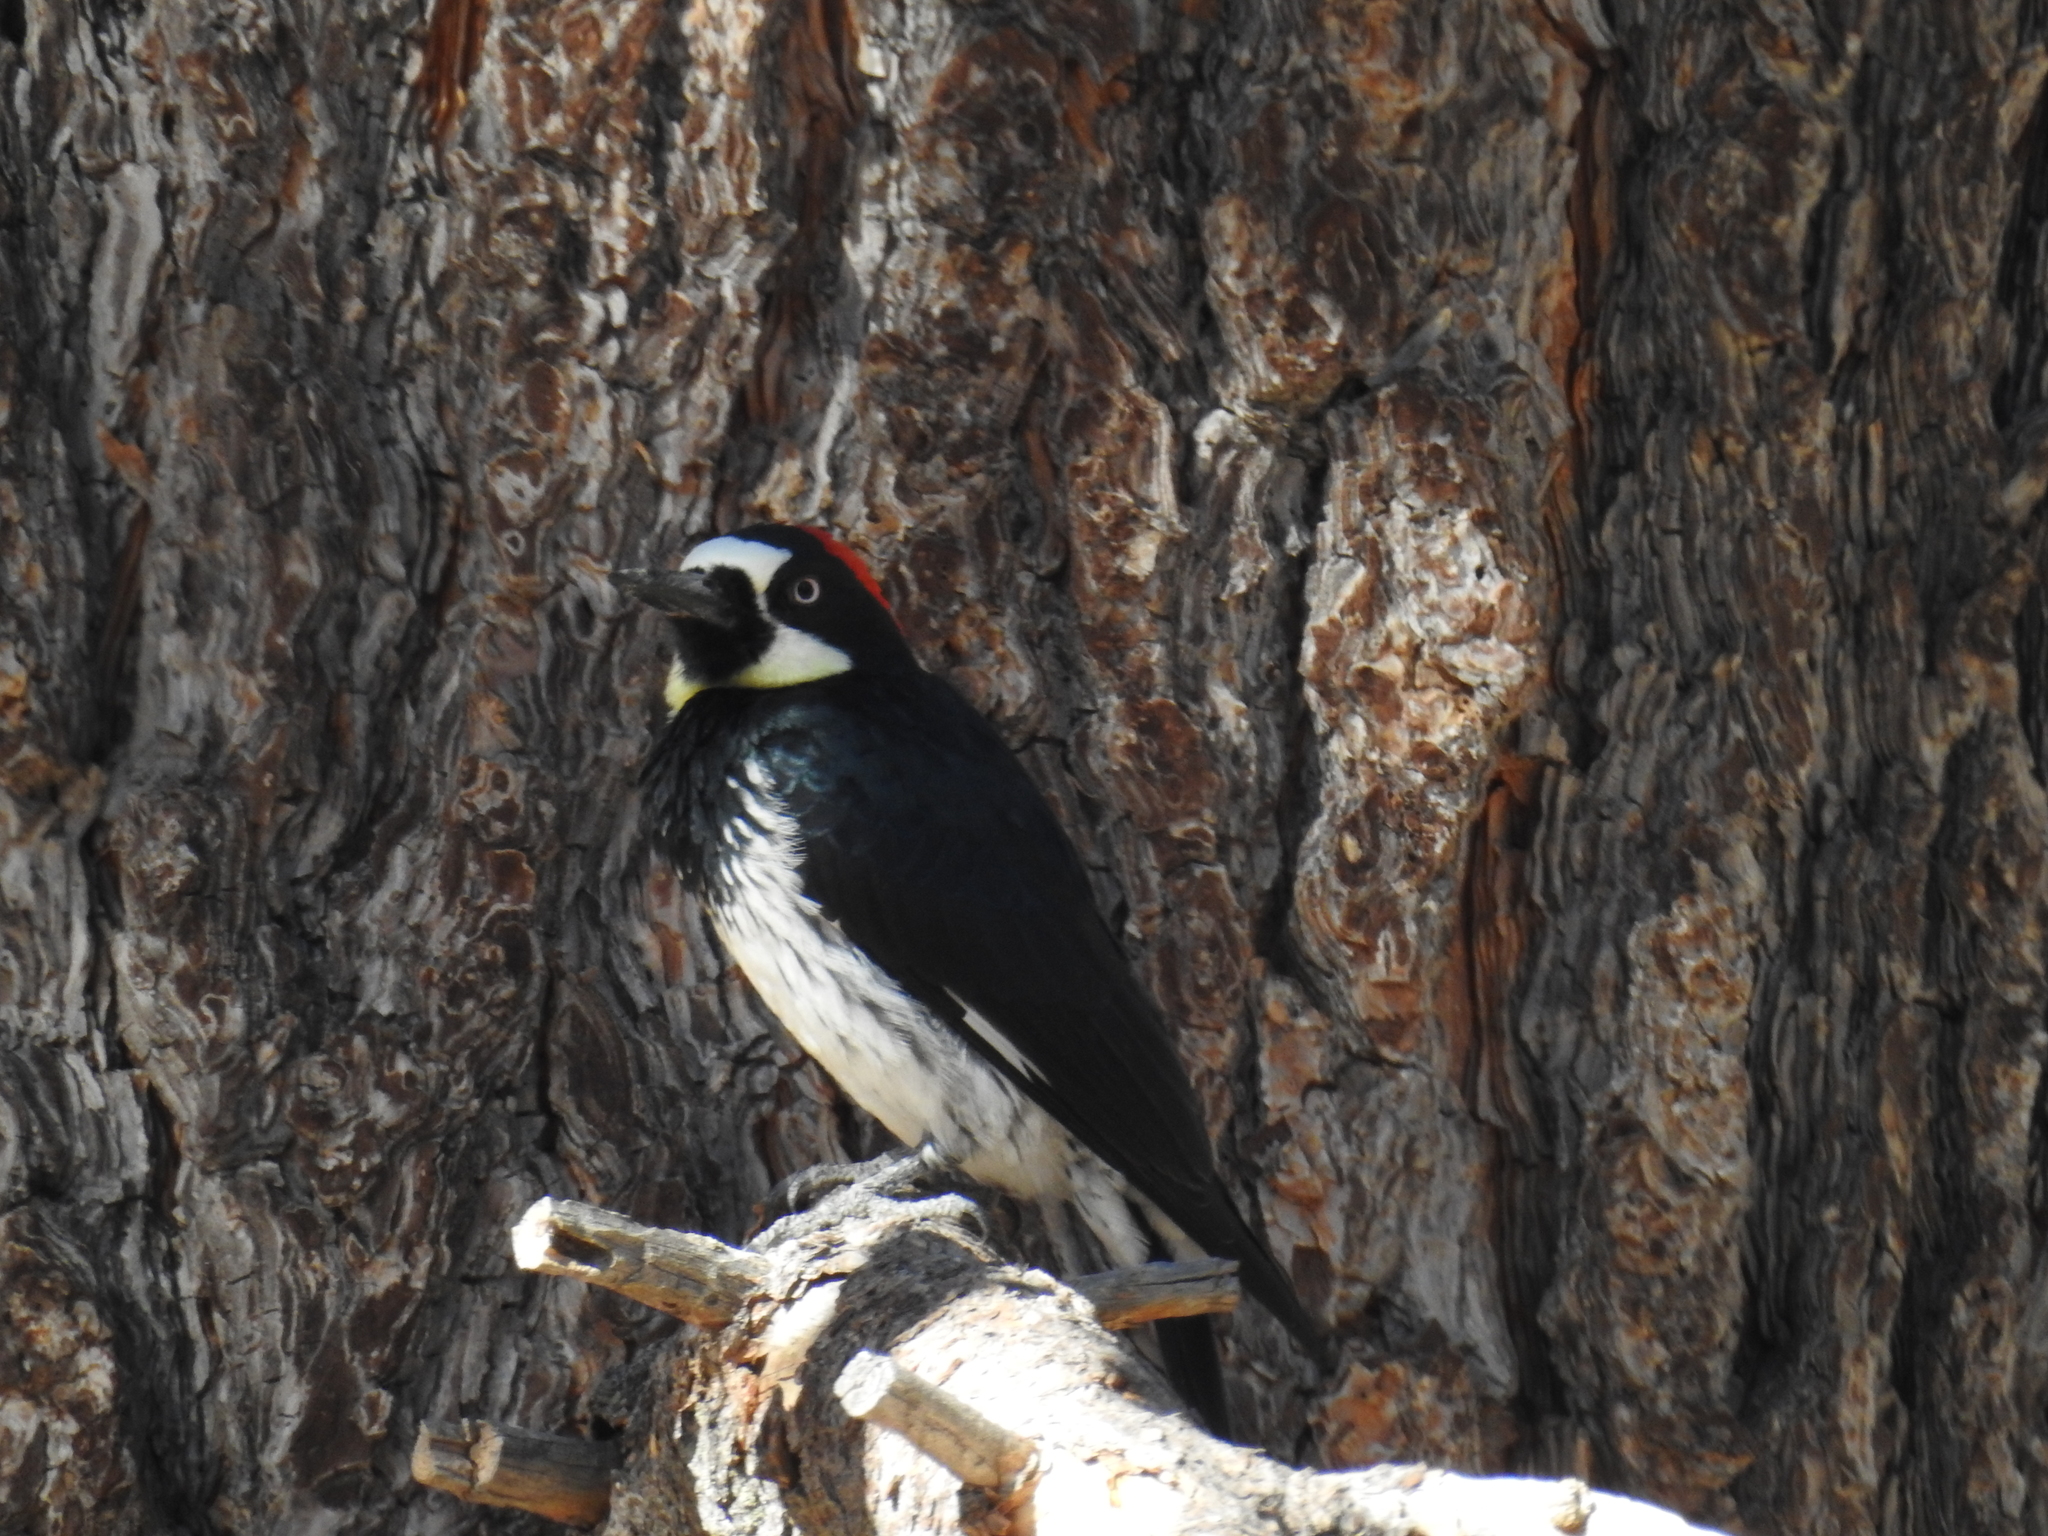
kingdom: Animalia
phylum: Chordata
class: Aves
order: Piciformes
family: Picidae
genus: Melanerpes
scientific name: Melanerpes formicivorus
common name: Acorn woodpecker
